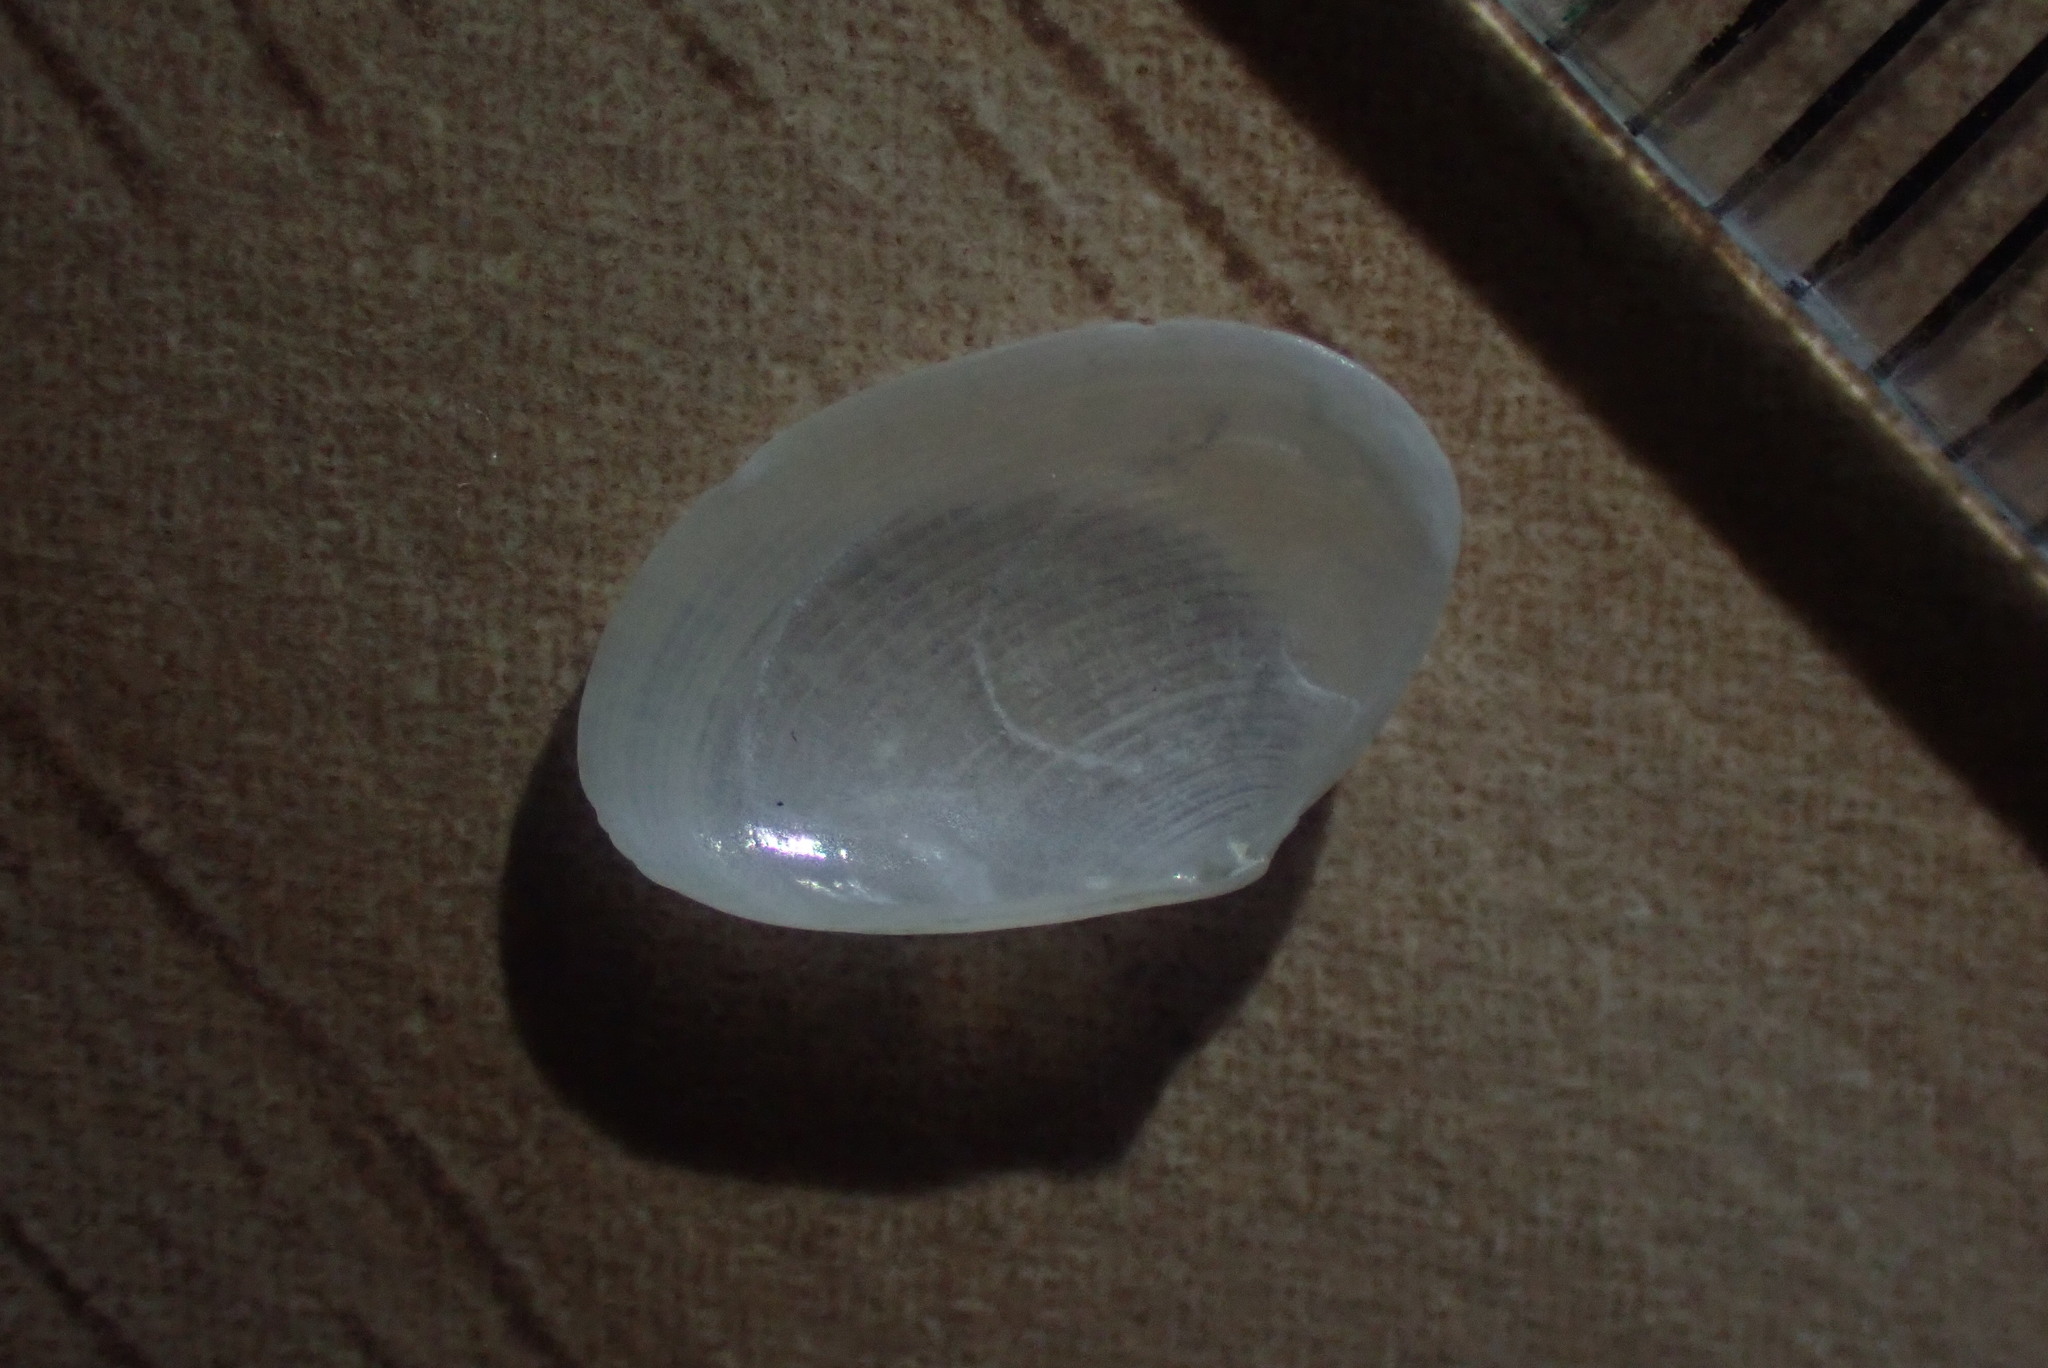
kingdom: Animalia
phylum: Mollusca
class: Bivalvia
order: Cardiida
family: Tellinidae
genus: Elliptotellina
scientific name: Elliptotellina urinatoria
